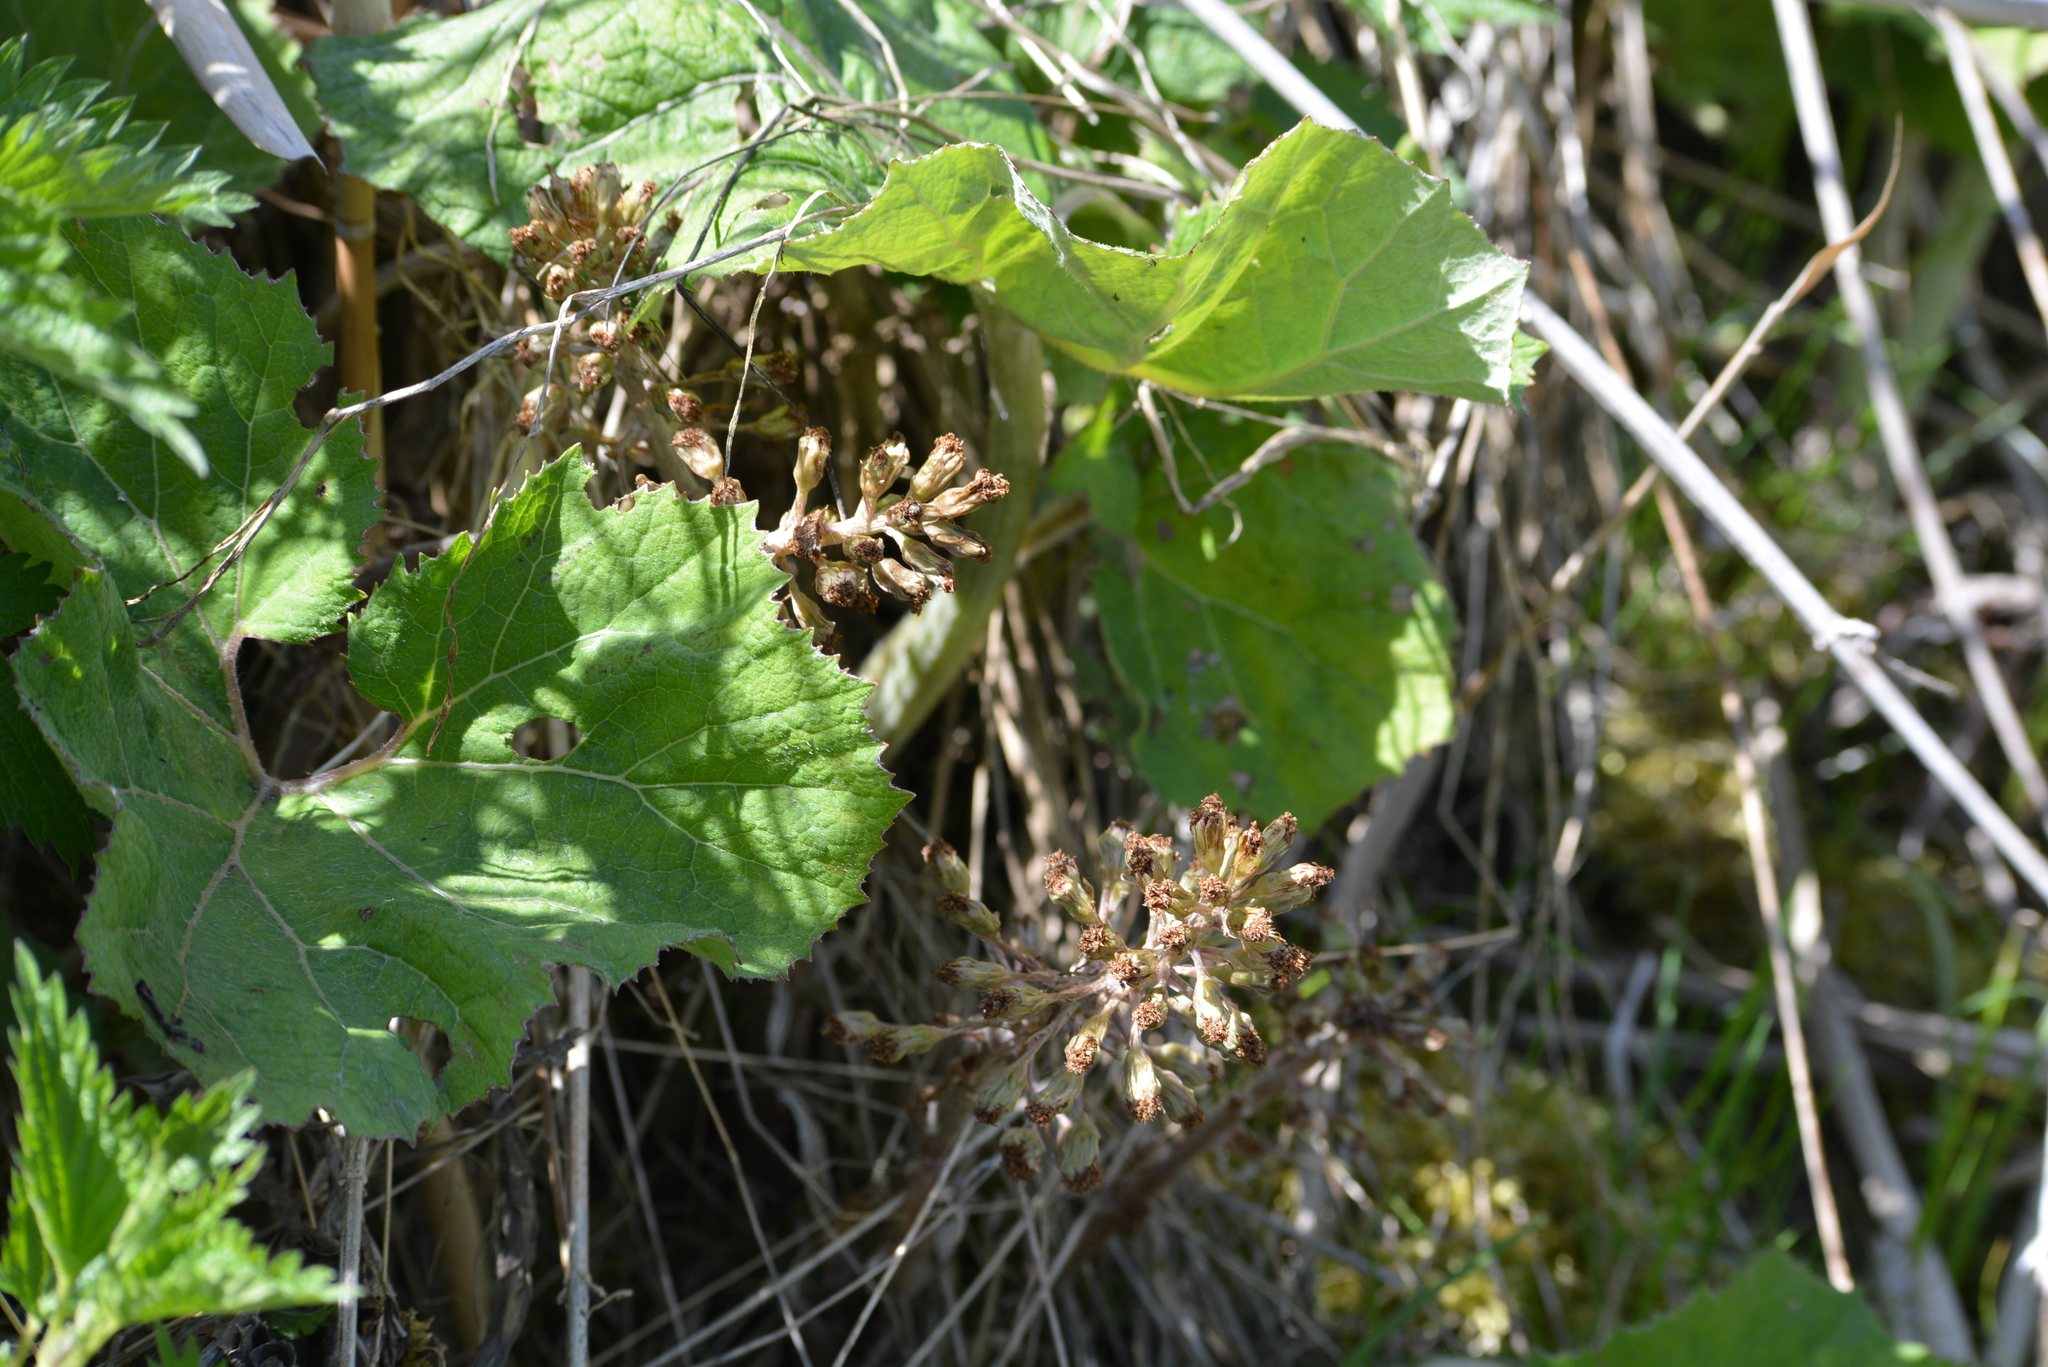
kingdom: Plantae
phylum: Tracheophyta
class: Magnoliopsida
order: Asterales
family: Asteraceae
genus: Petasites
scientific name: Petasites hybridus
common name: Butterbur
